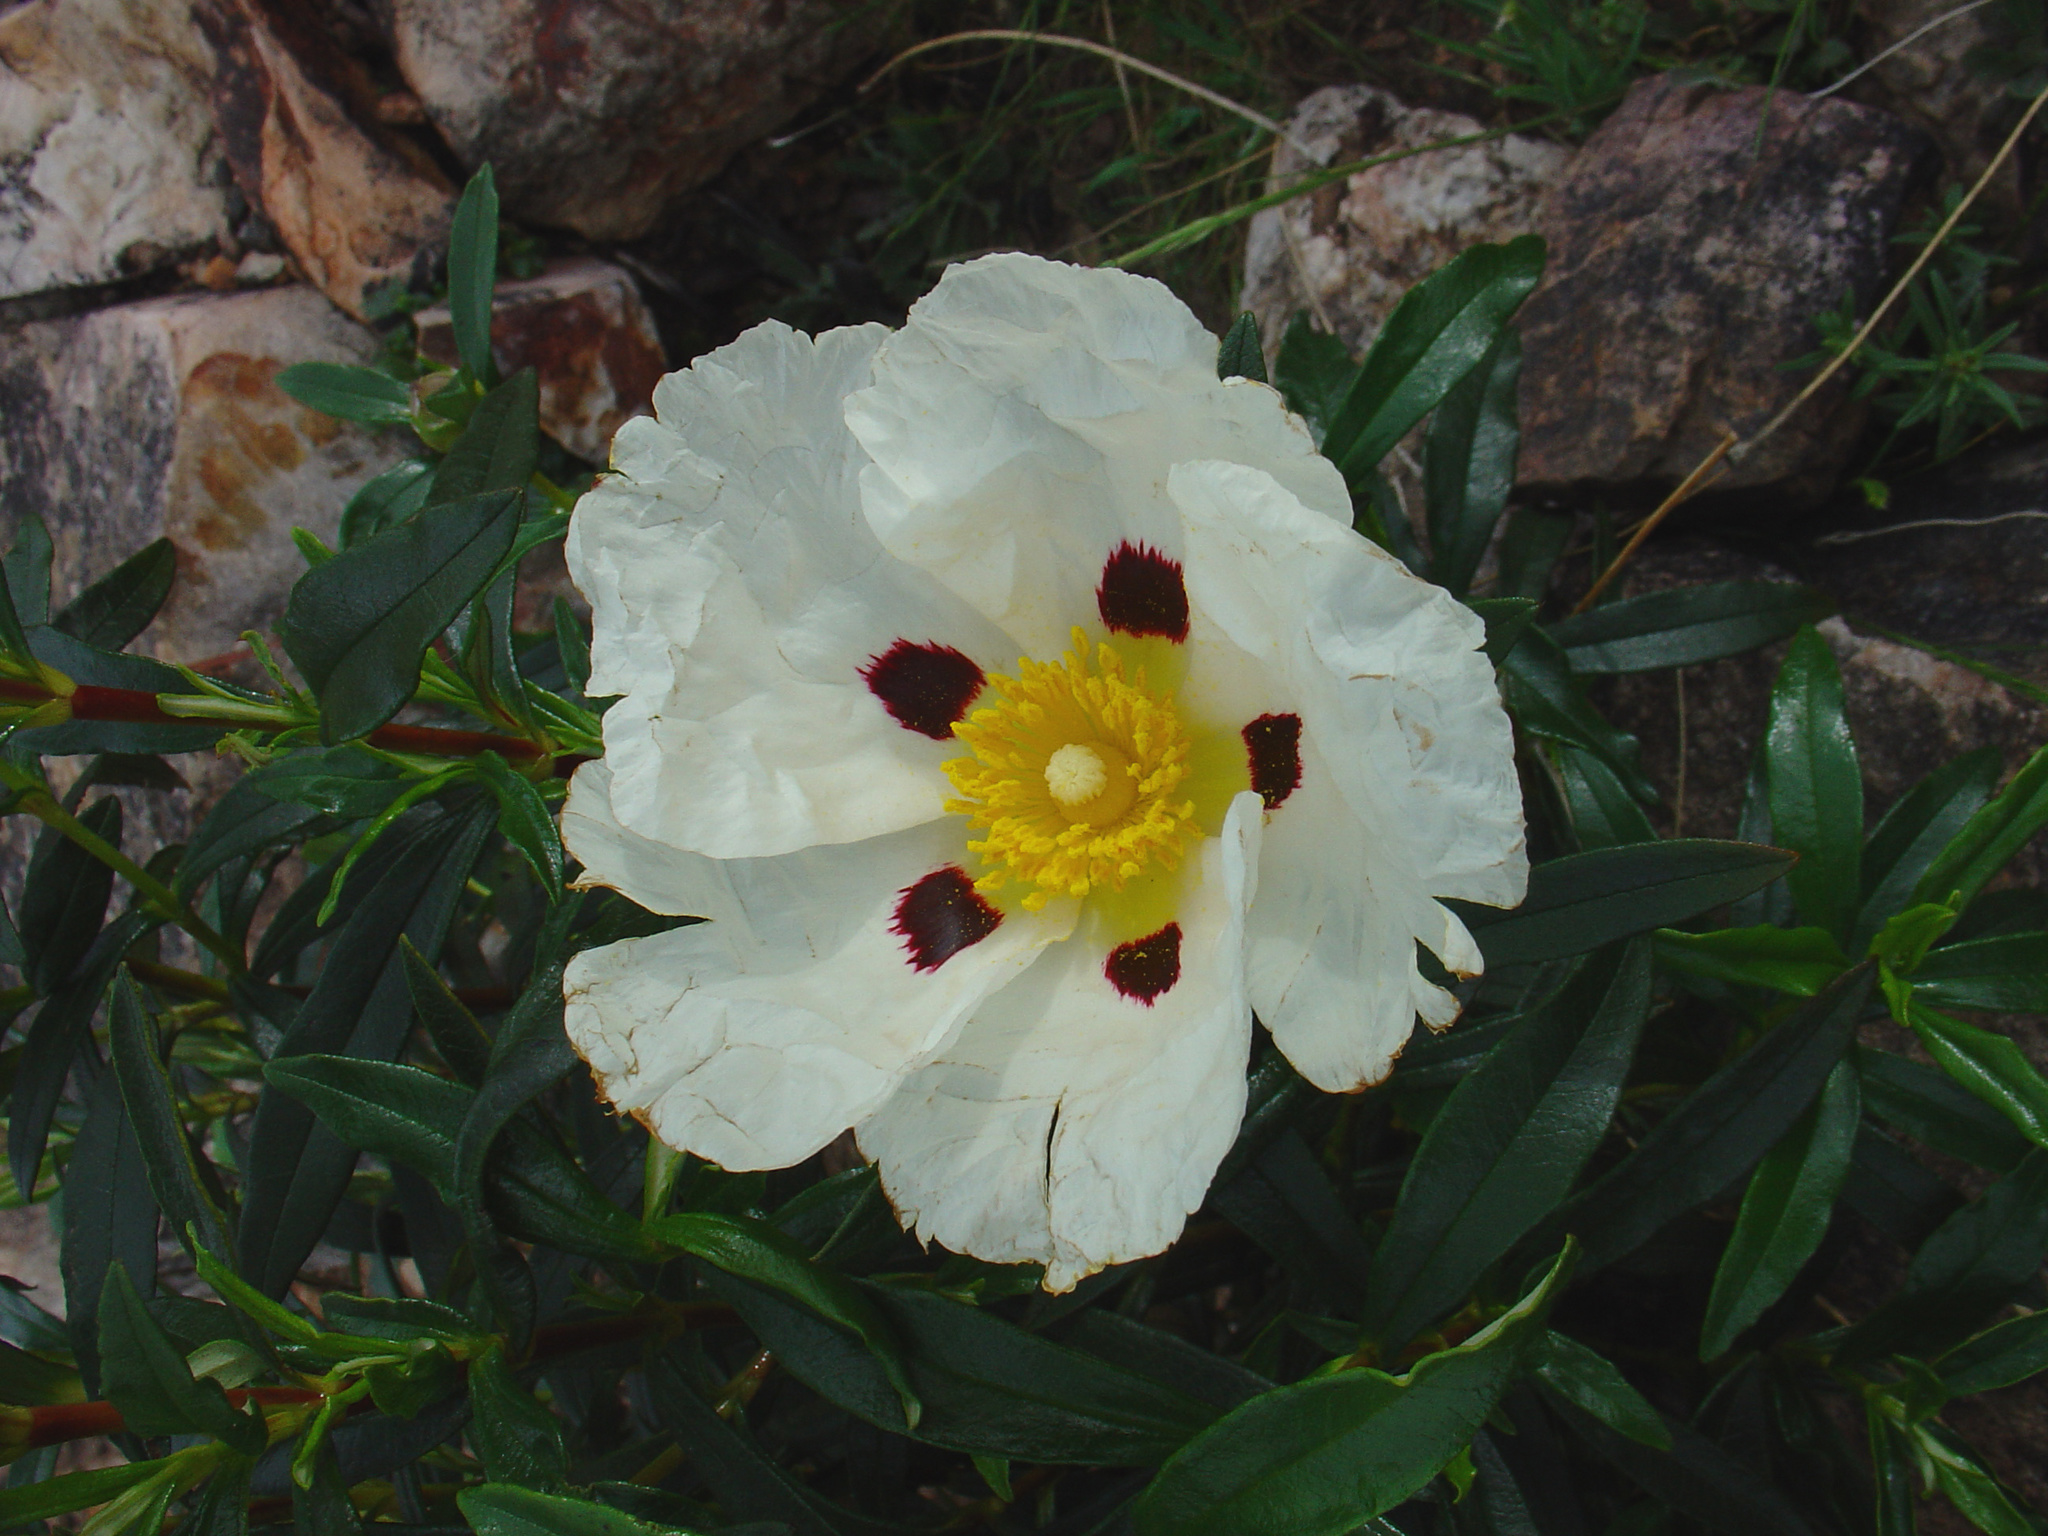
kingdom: Plantae
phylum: Tracheophyta
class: Magnoliopsida
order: Malvales
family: Cistaceae
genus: Cistus
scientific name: Cistus ladanifer
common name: Common gum cistus
